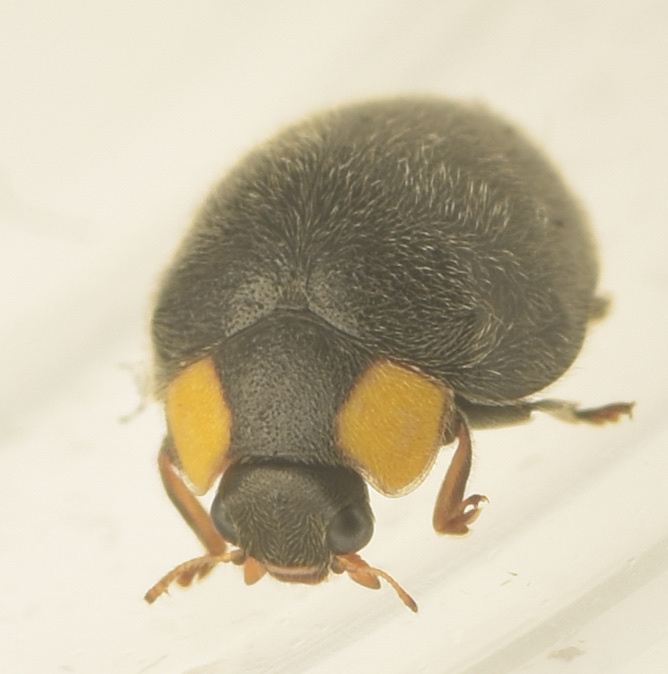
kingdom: Animalia
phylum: Arthropoda
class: Insecta
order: Coleoptera
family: Coccinellidae
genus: Scymnodes
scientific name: Scymnodes lividigaster
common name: Yellowshouldered lady beetle
